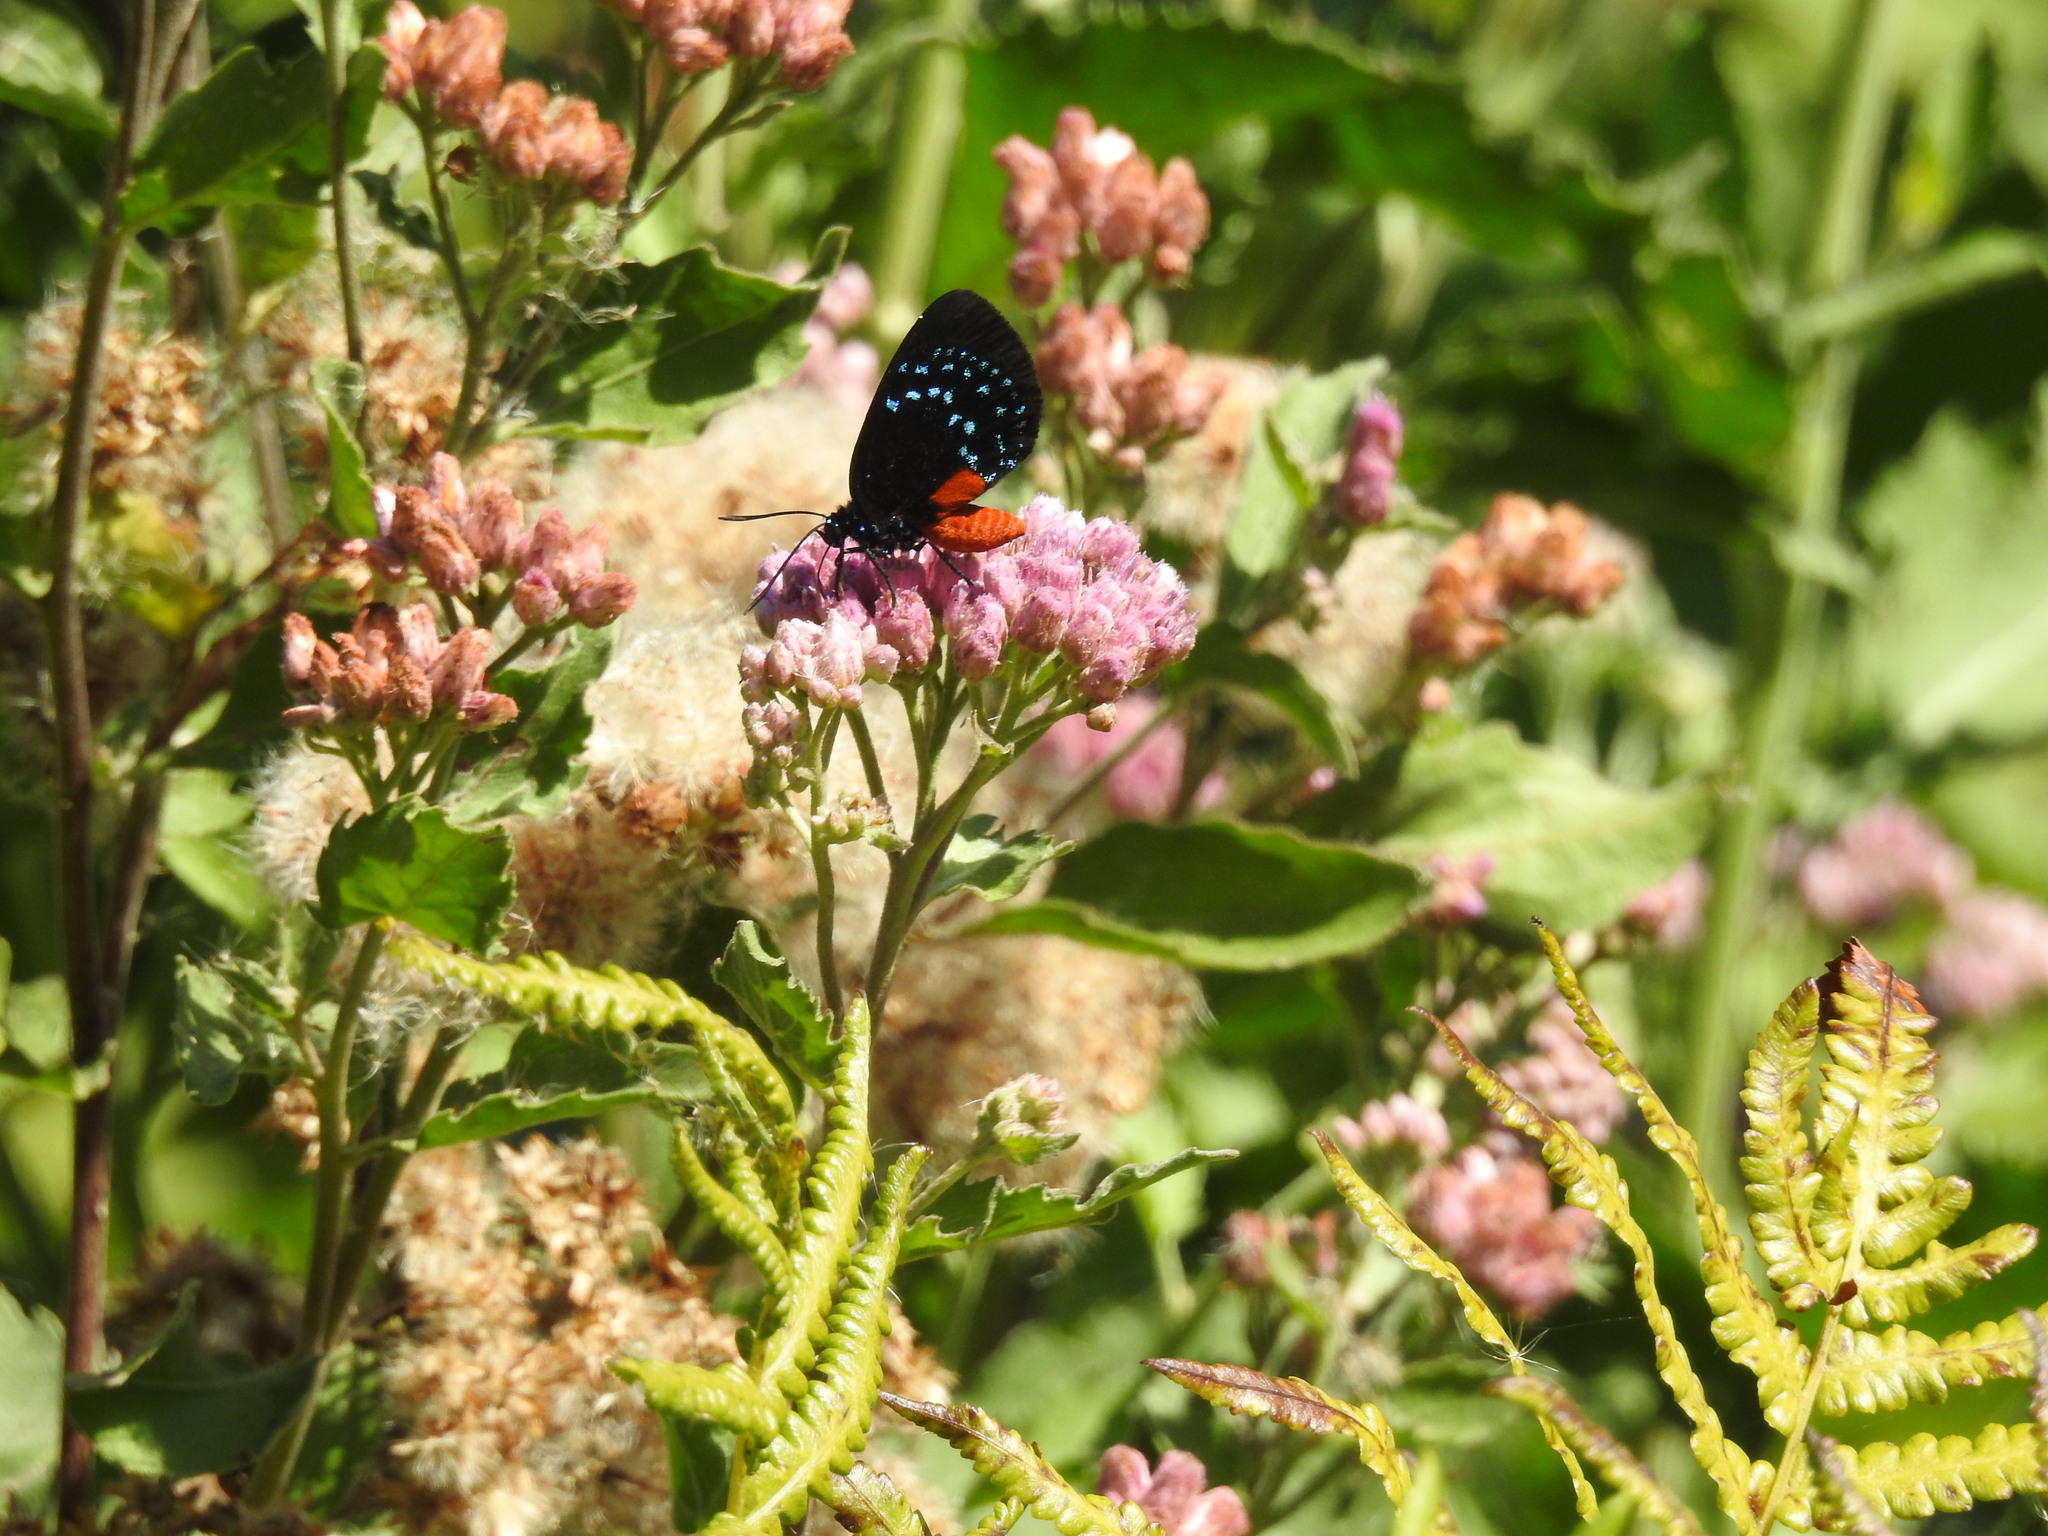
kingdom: Animalia
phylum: Arthropoda
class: Insecta
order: Lepidoptera
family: Lycaenidae
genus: Eumaeus
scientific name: Eumaeus atala
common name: Atala
